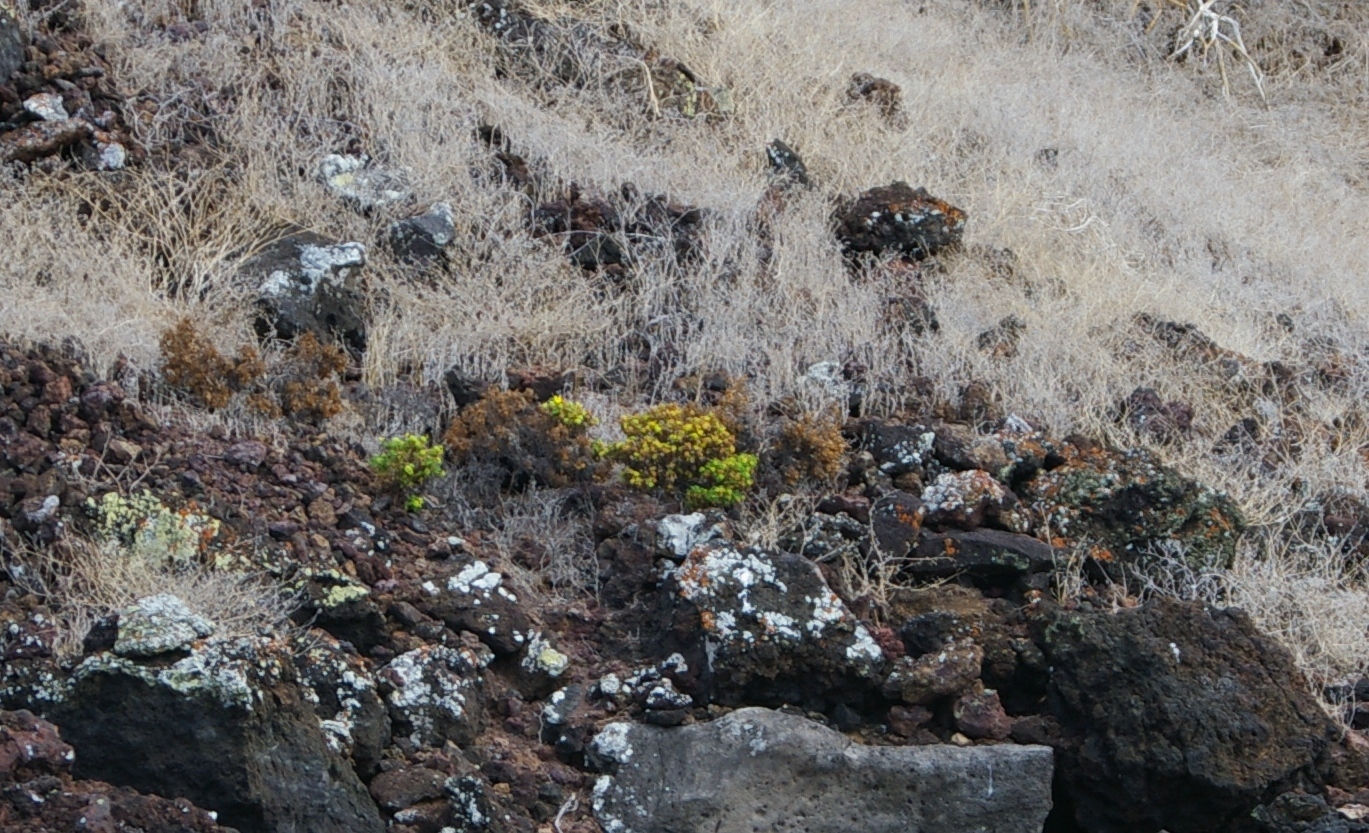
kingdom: Plantae
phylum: Tracheophyta
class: Magnoliopsida
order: Asterales
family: Asteraceae
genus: Lecocarpus
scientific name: Lecocarpus pinnatifidus
